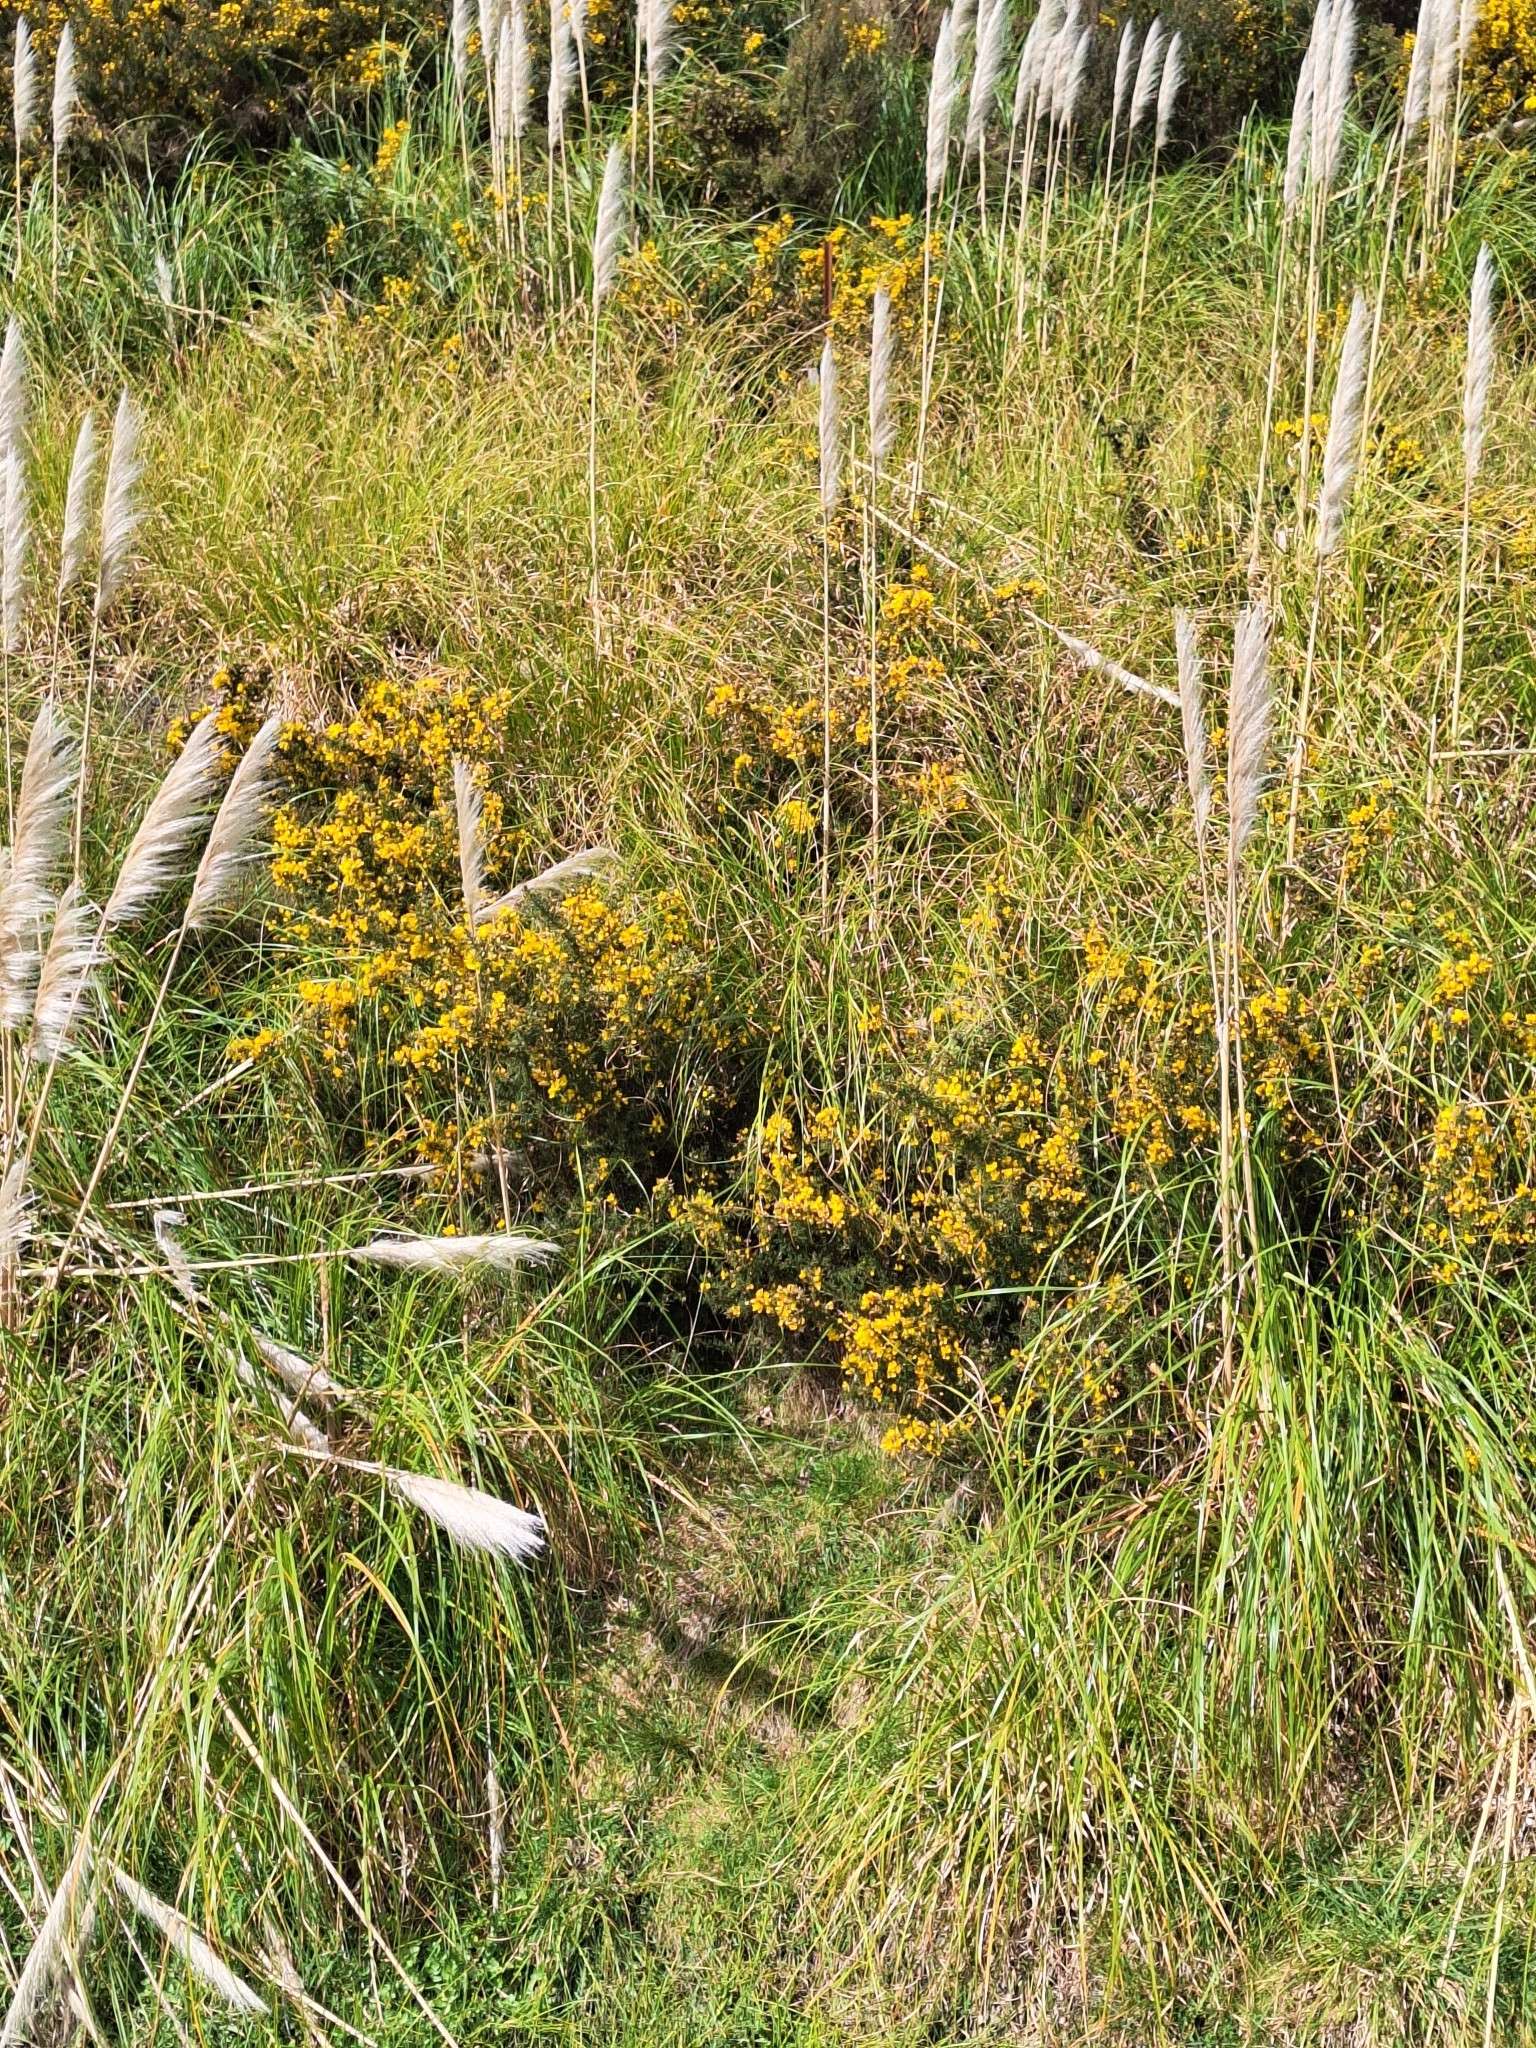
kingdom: Plantae
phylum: Tracheophyta
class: Magnoliopsida
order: Fabales
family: Fabaceae
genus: Ulex
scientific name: Ulex europaeus
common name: Common gorse
